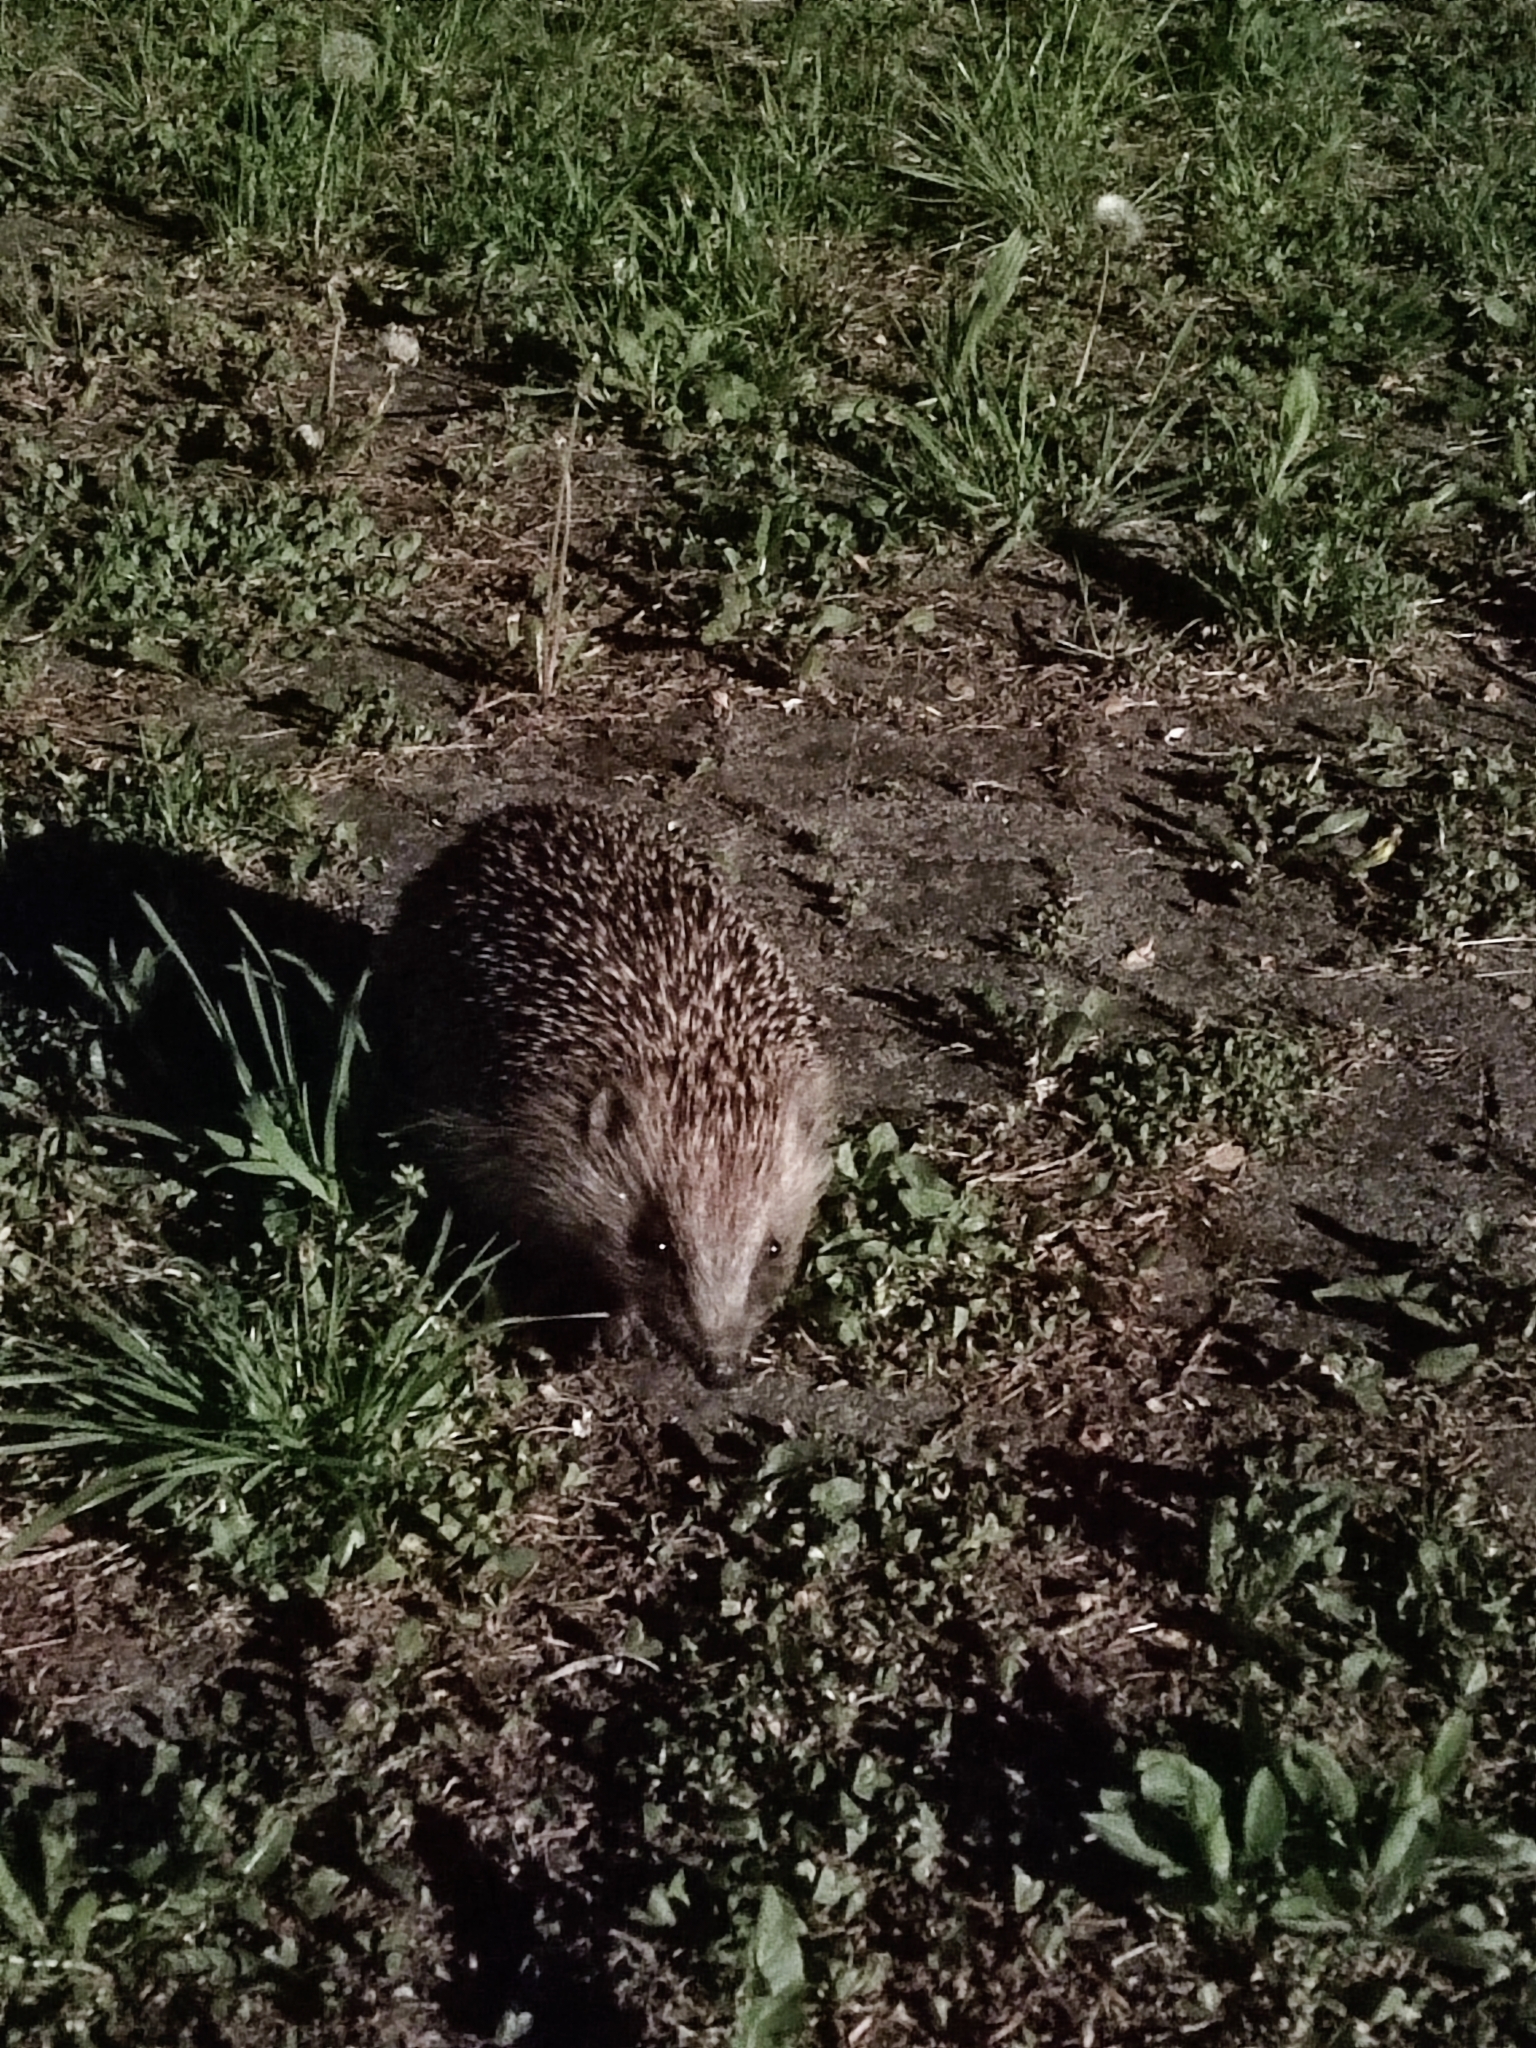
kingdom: Animalia
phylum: Chordata
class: Mammalia
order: Erinaceomorpha
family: Erinaceidae
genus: Erinaceus
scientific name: Erinaceus europaeus
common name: West european hedgehog
